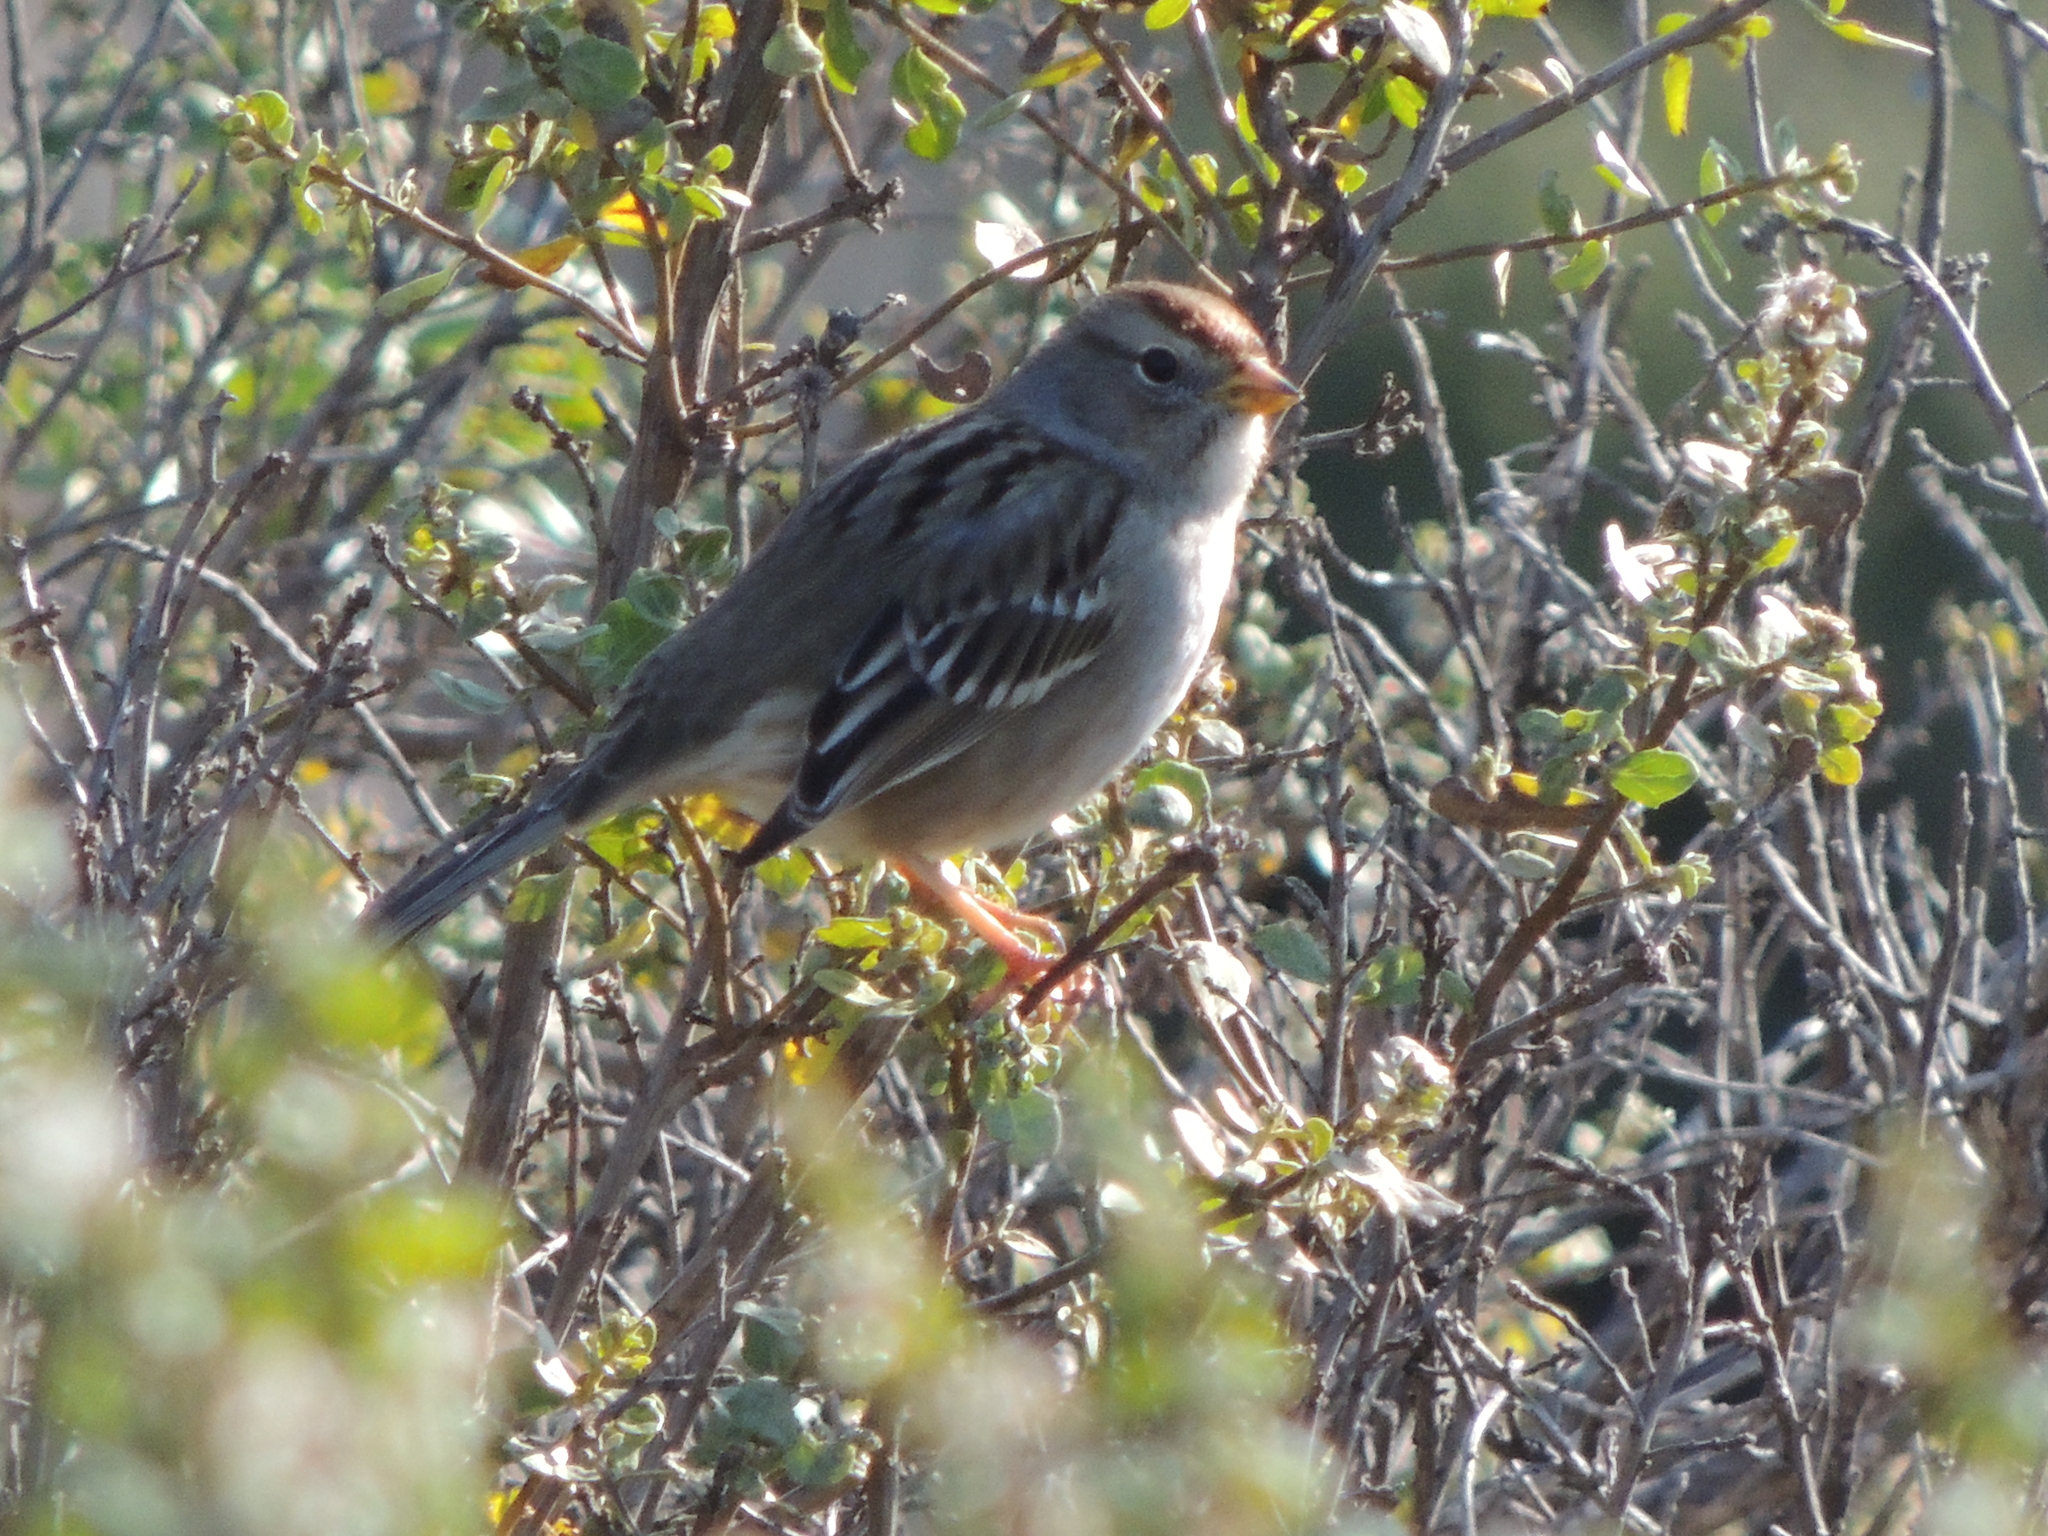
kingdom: Animalia
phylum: Chordata
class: Aves
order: Passeriformes
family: Passerellidae
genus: Zonotrichia
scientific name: Zonotrichia leucophrys
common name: White-crowned sparrow
